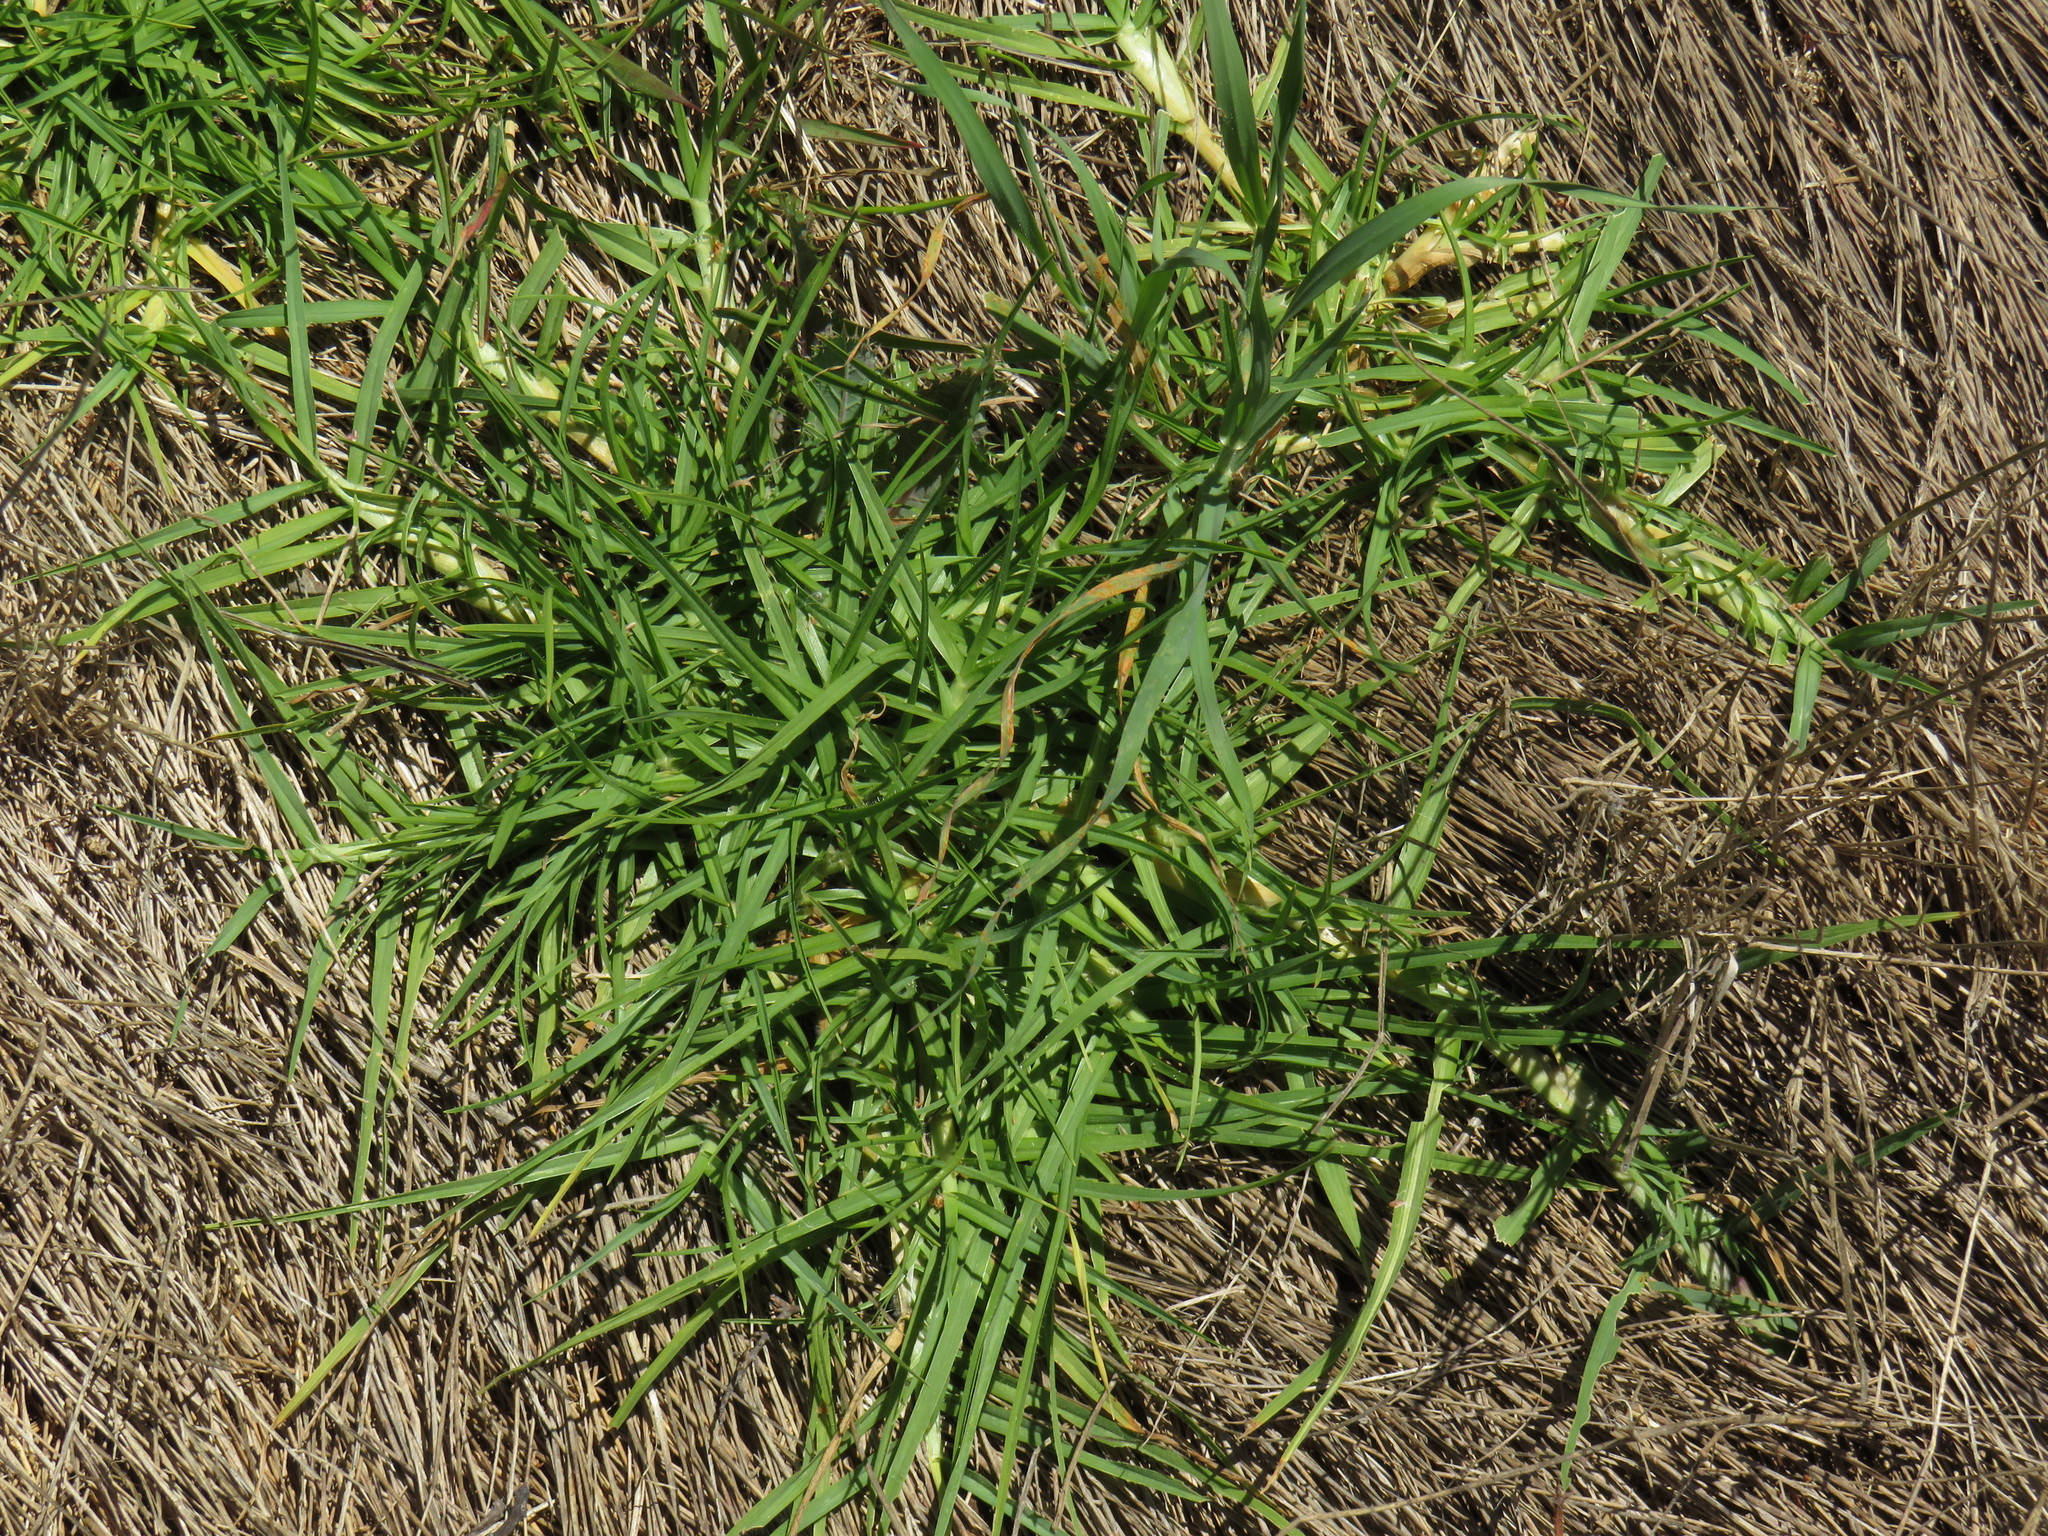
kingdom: Plantae
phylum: Tracheophyta
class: Liliopsida
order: Poales
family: Poaceae
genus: Cenchrus
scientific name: Cenchrus clandestinus
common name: Kikuyugrass
